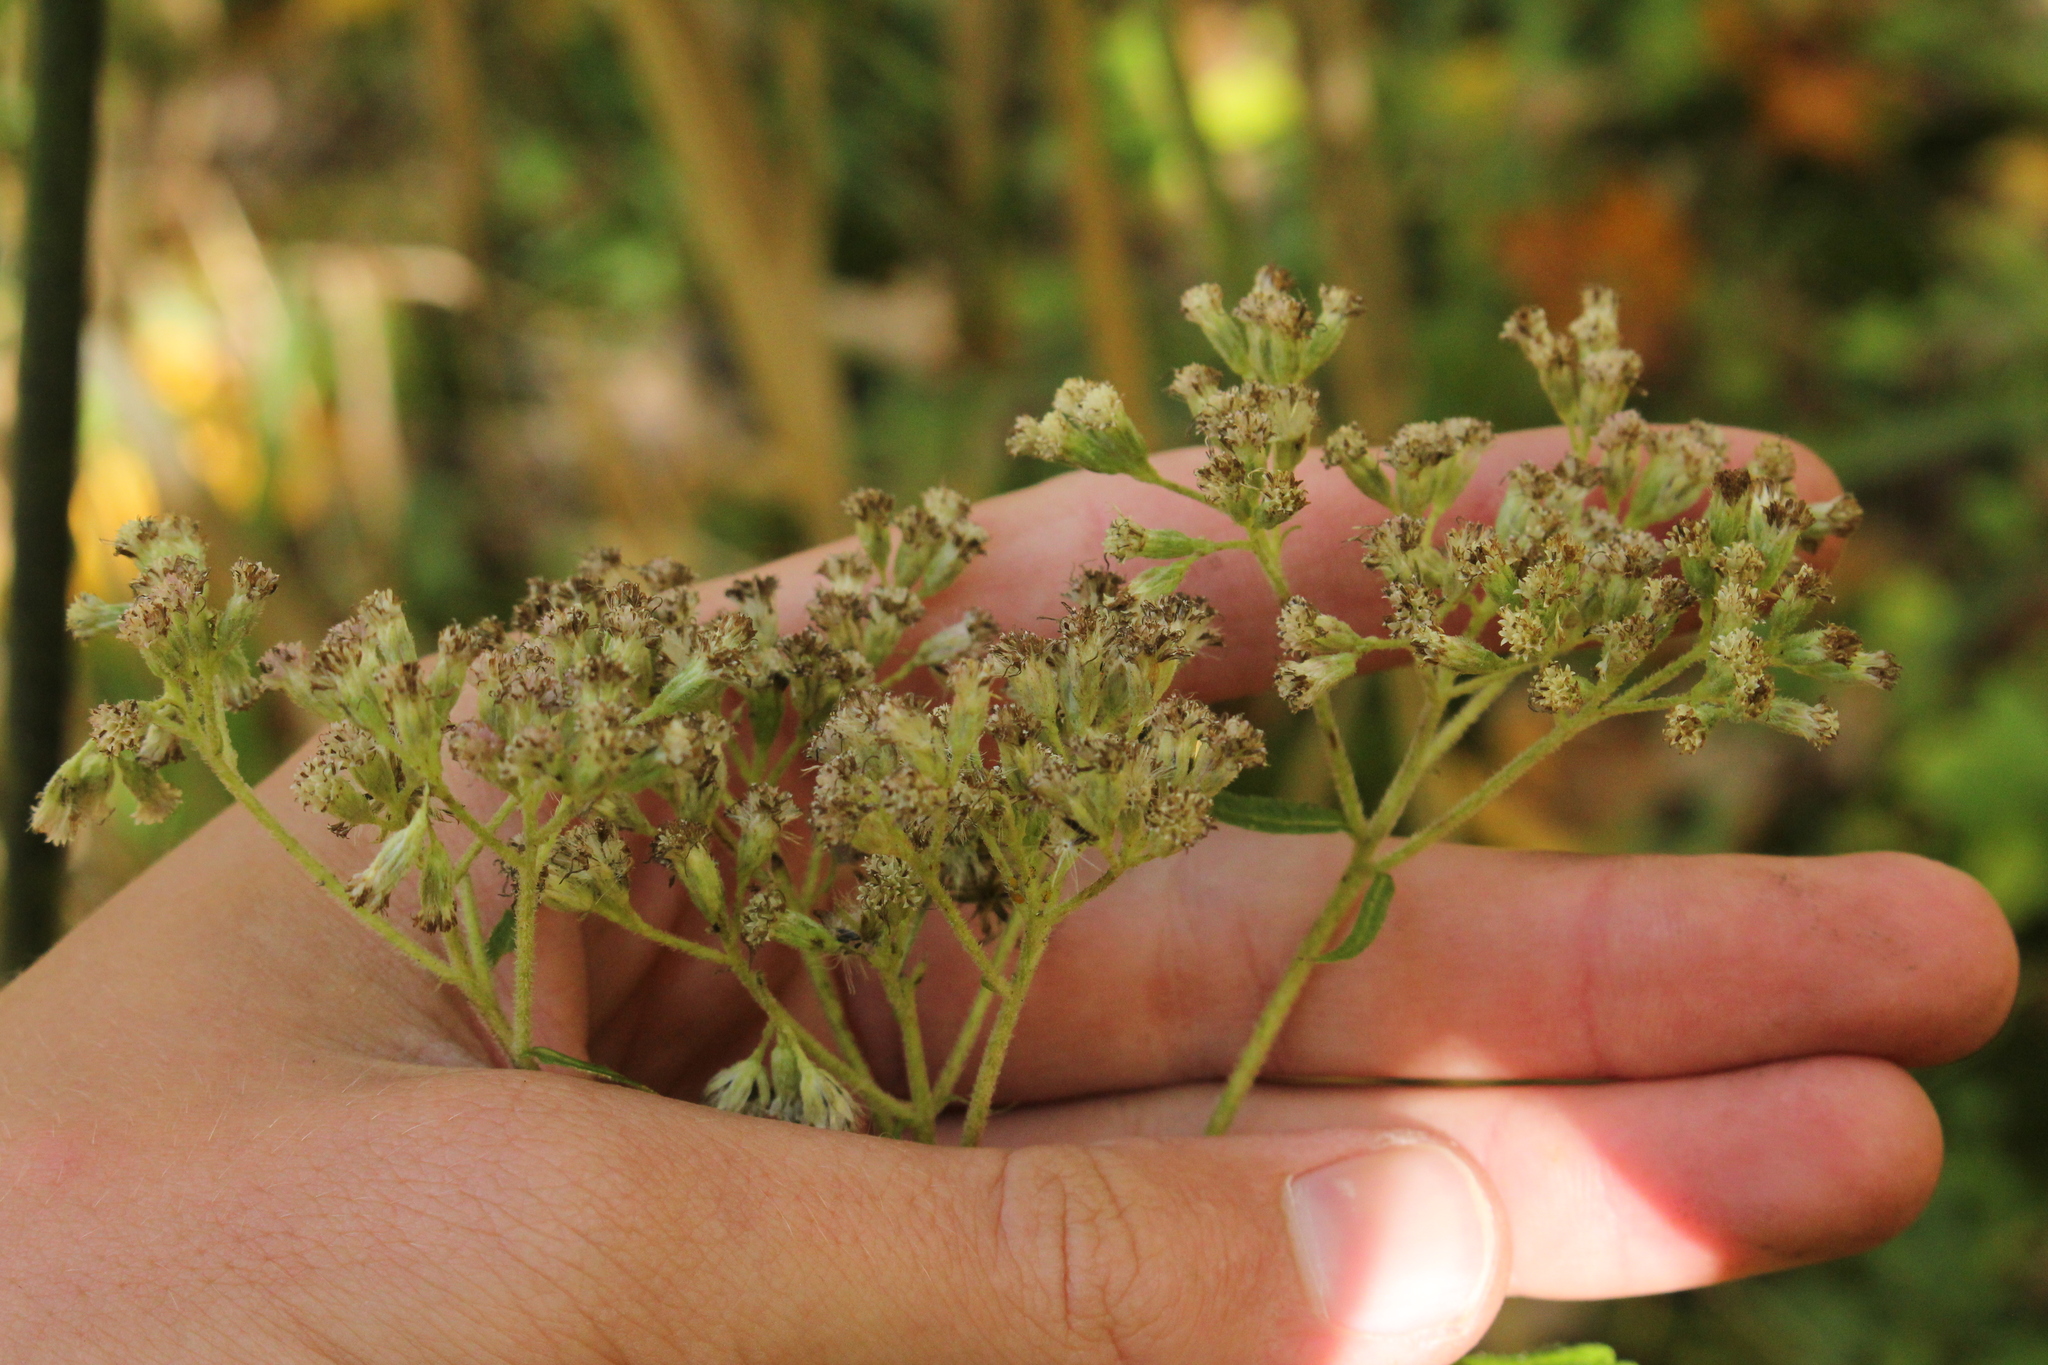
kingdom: Plantae
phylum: Tracheophyta
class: Magnoliopsida
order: Asterales
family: Asteraceae
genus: Eupatorium
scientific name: Eupatorium perfoliatum
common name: Boneset
